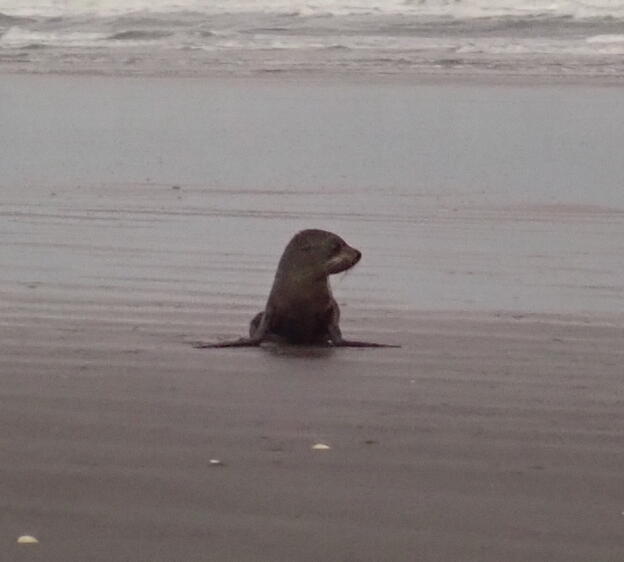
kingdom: Animalia
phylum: Chordata
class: Mammalia
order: Carnivora
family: Otariidae
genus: Arctocephalus
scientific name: Arctocephalus forsteri
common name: New zealand fur seal
